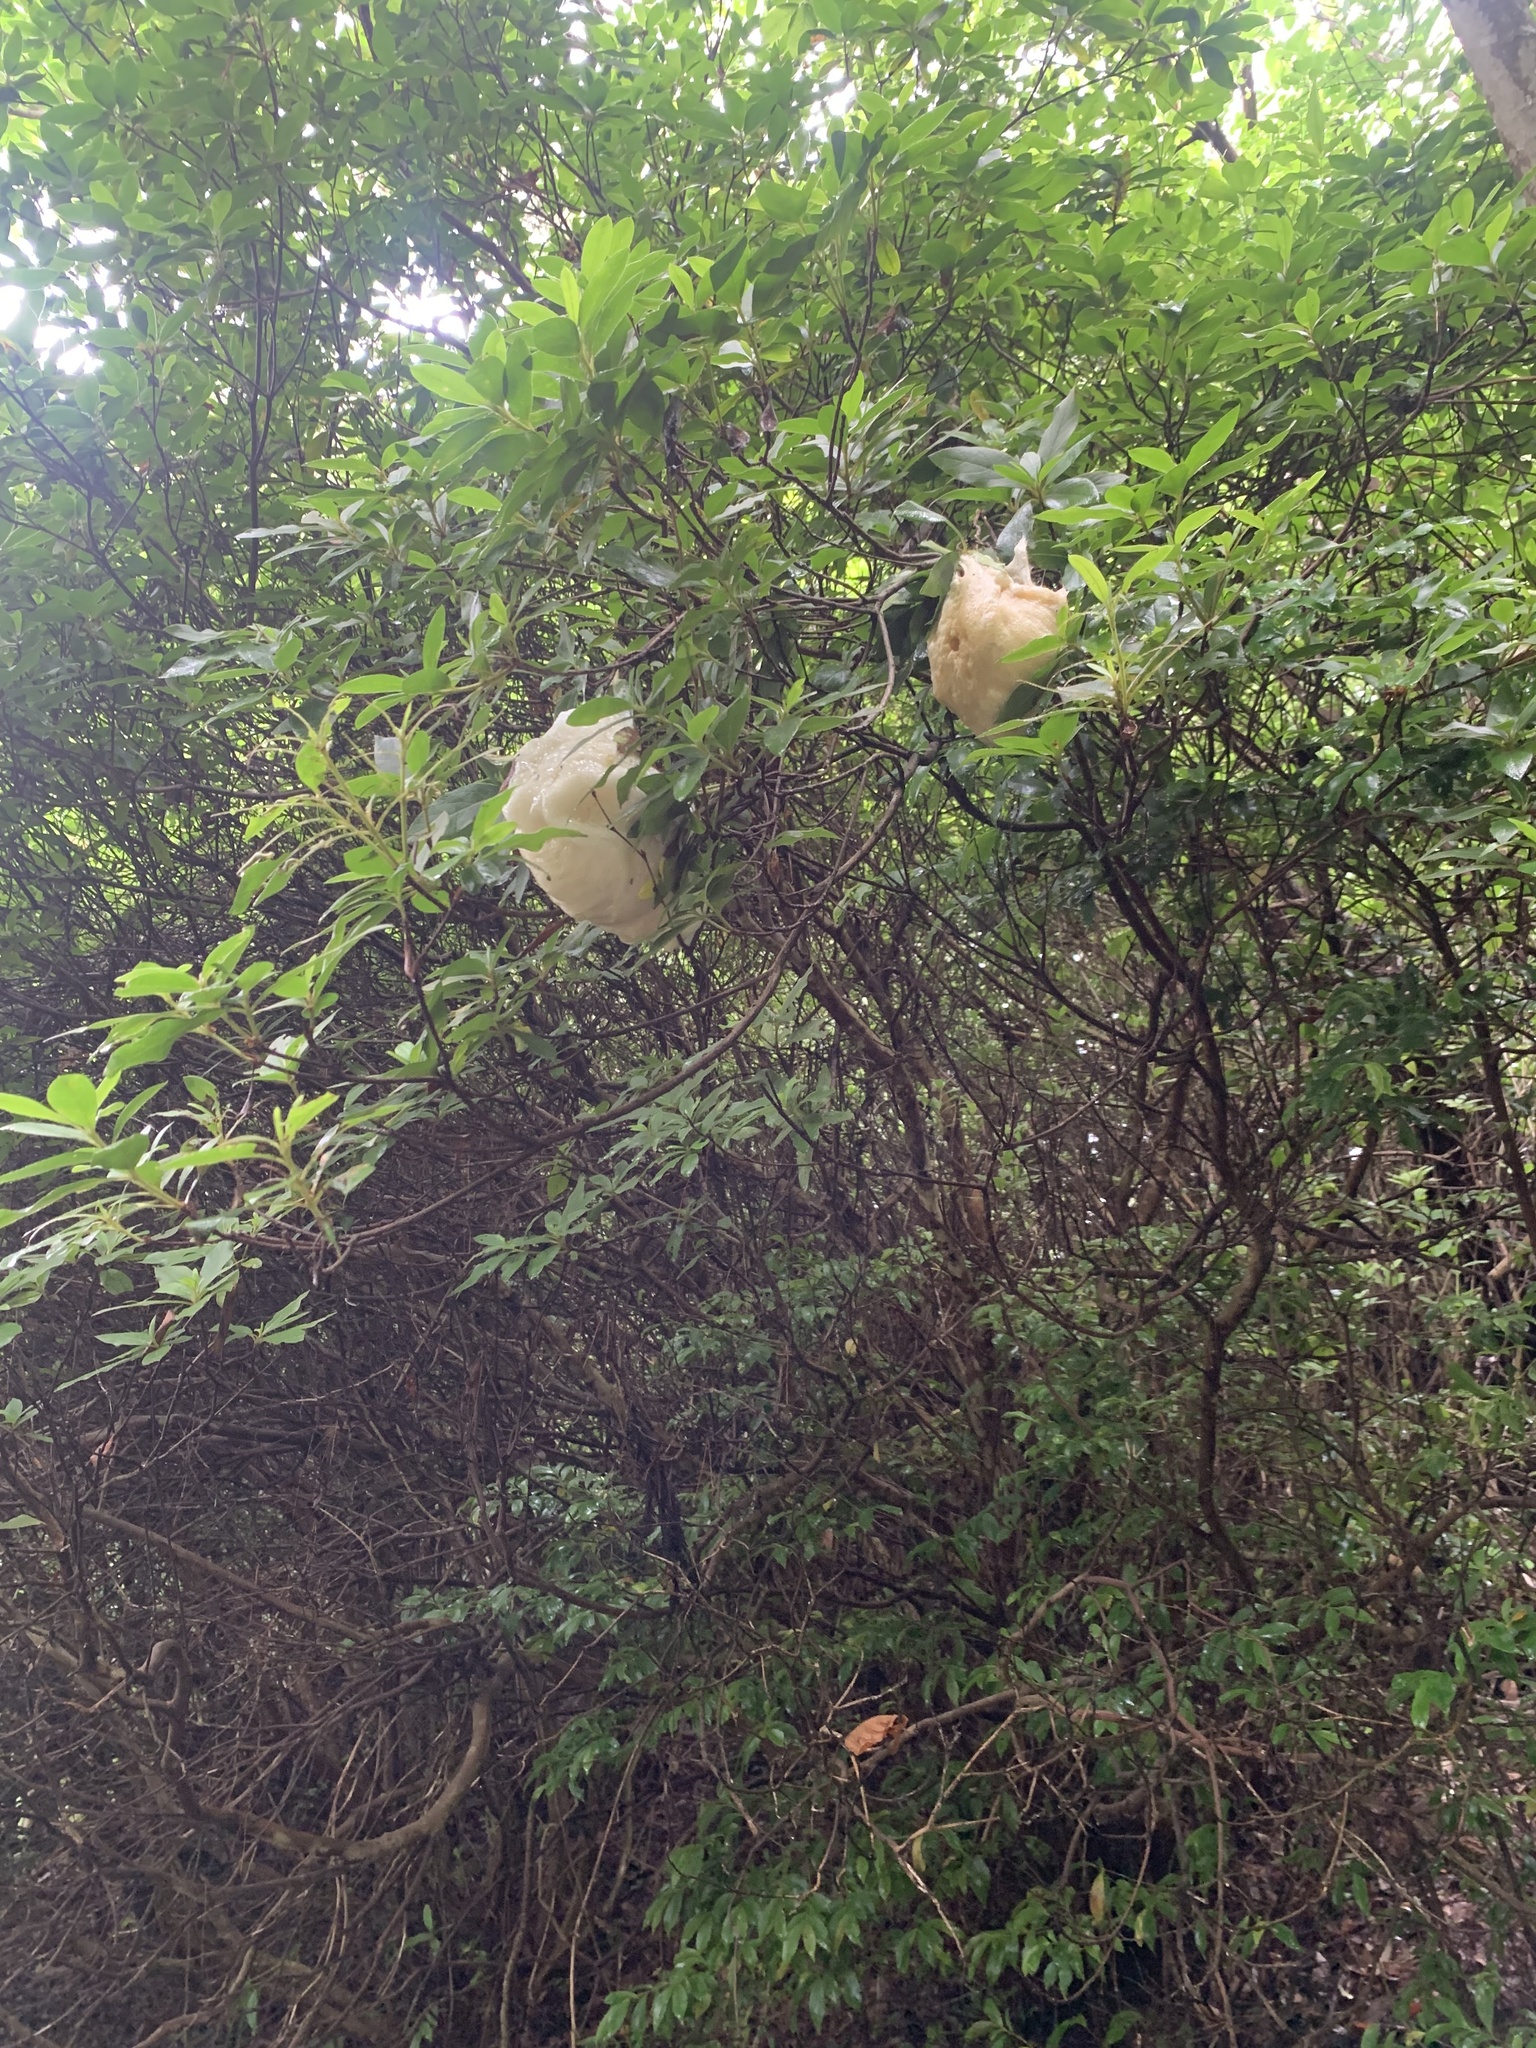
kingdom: Animalia
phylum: Chordata
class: Amphibia
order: Anura
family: Rhacophoridae
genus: Zhangixalus
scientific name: Zhangixalus arboreus
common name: Forest green tree frog
